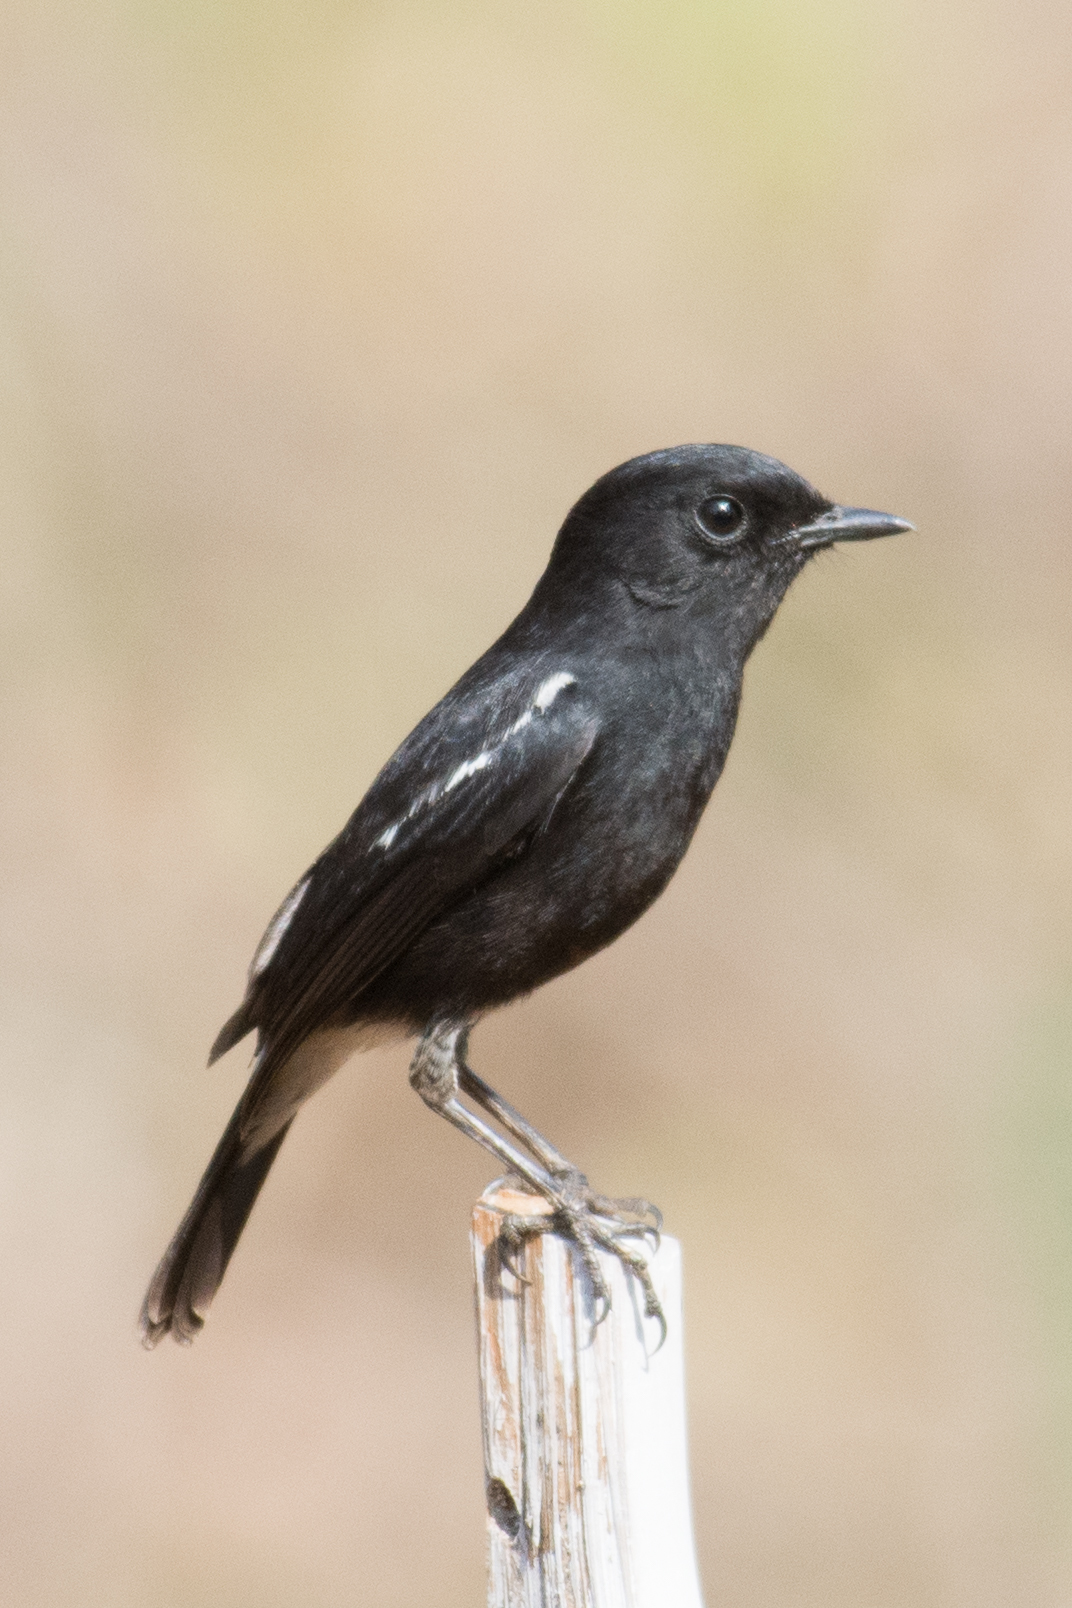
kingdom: Animalia
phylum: Chordata
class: Aves
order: Passeriformes
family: Muscicapidae
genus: Saxicola
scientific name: Saxicola caprata
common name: Pied bush chat
